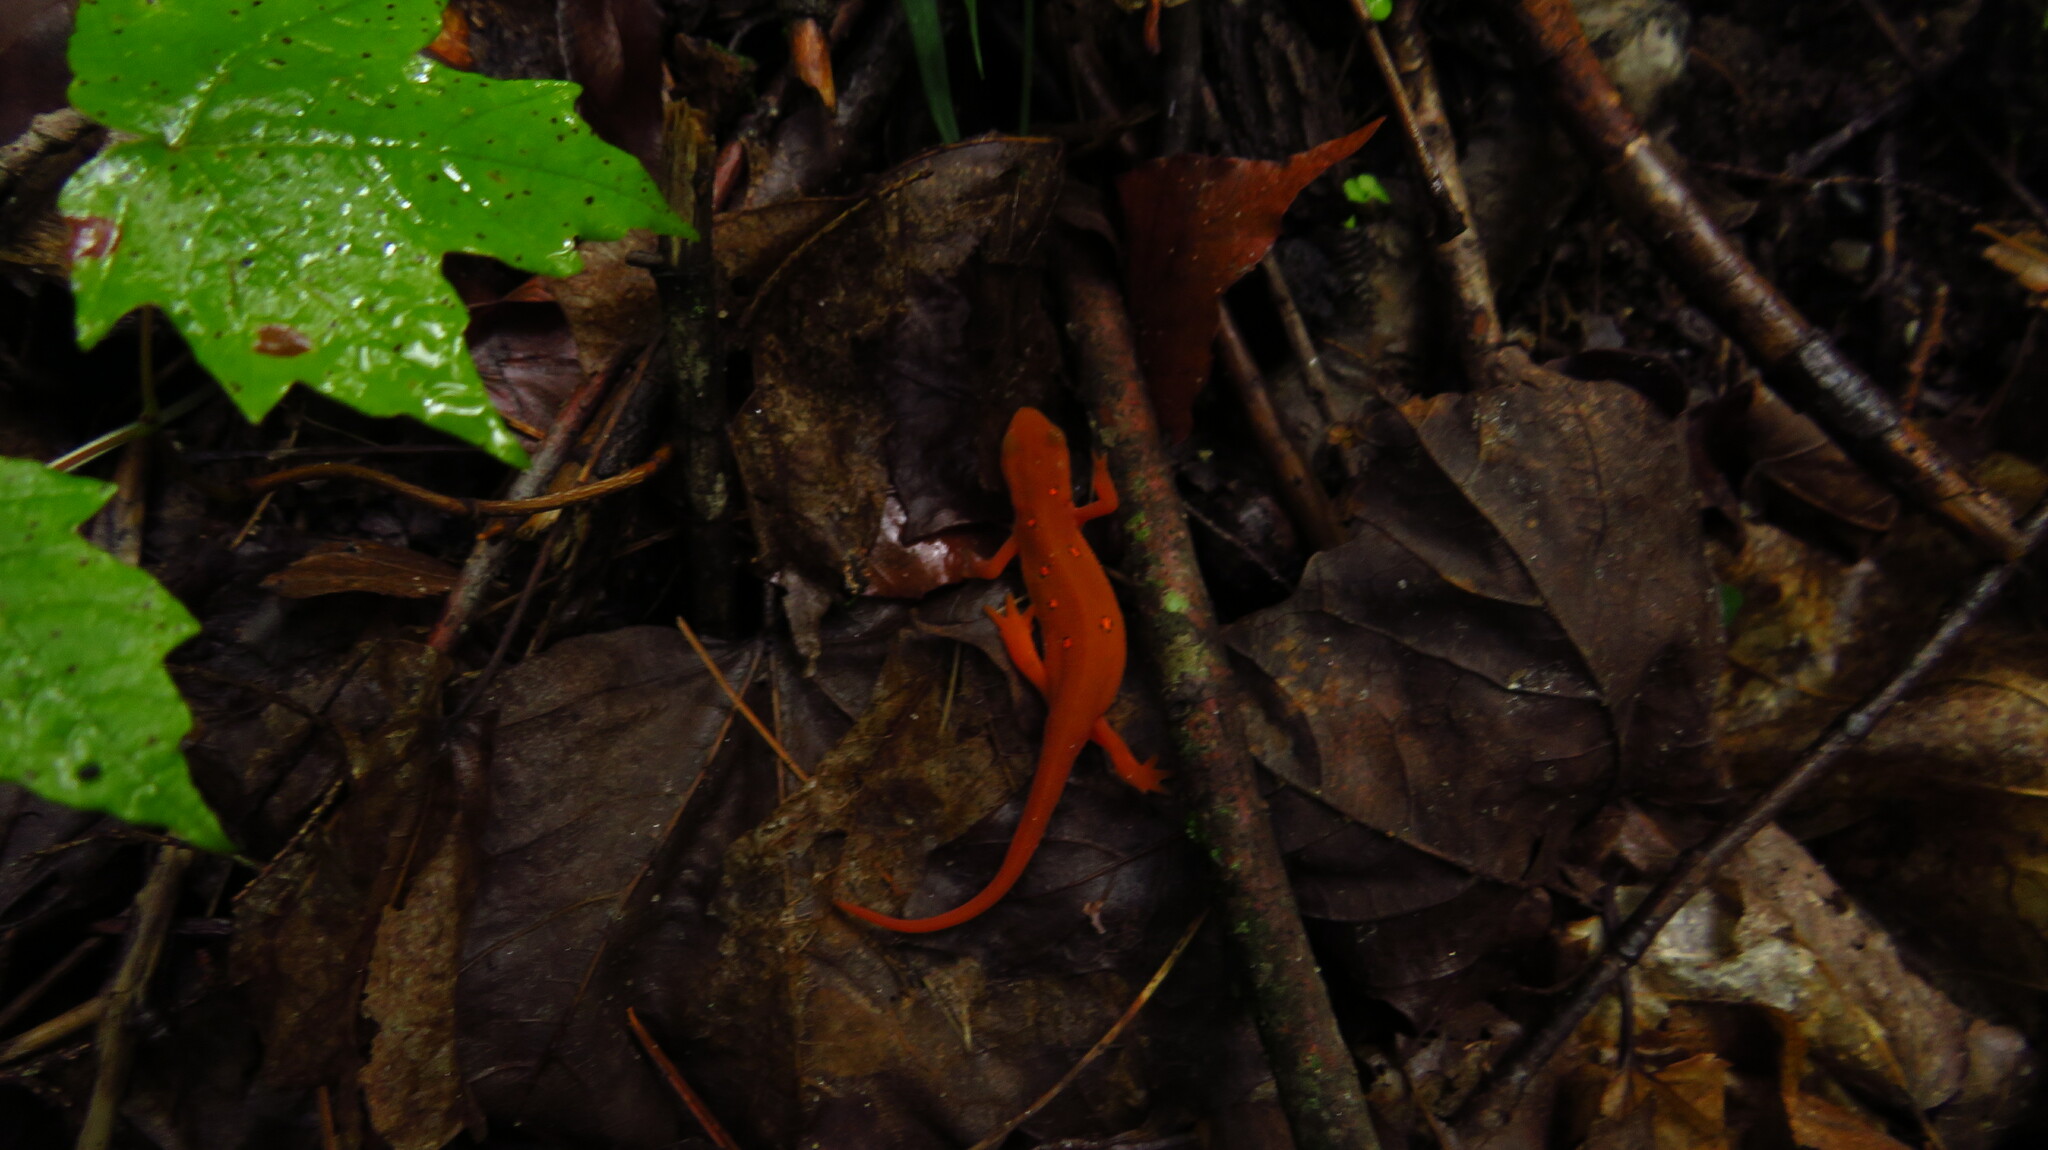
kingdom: Animalia
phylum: Chordata
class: Amphibia
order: Caudata
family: Salamandridae
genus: Notophthalmus
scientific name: Notophthalmus viridescens
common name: Eastern newt
